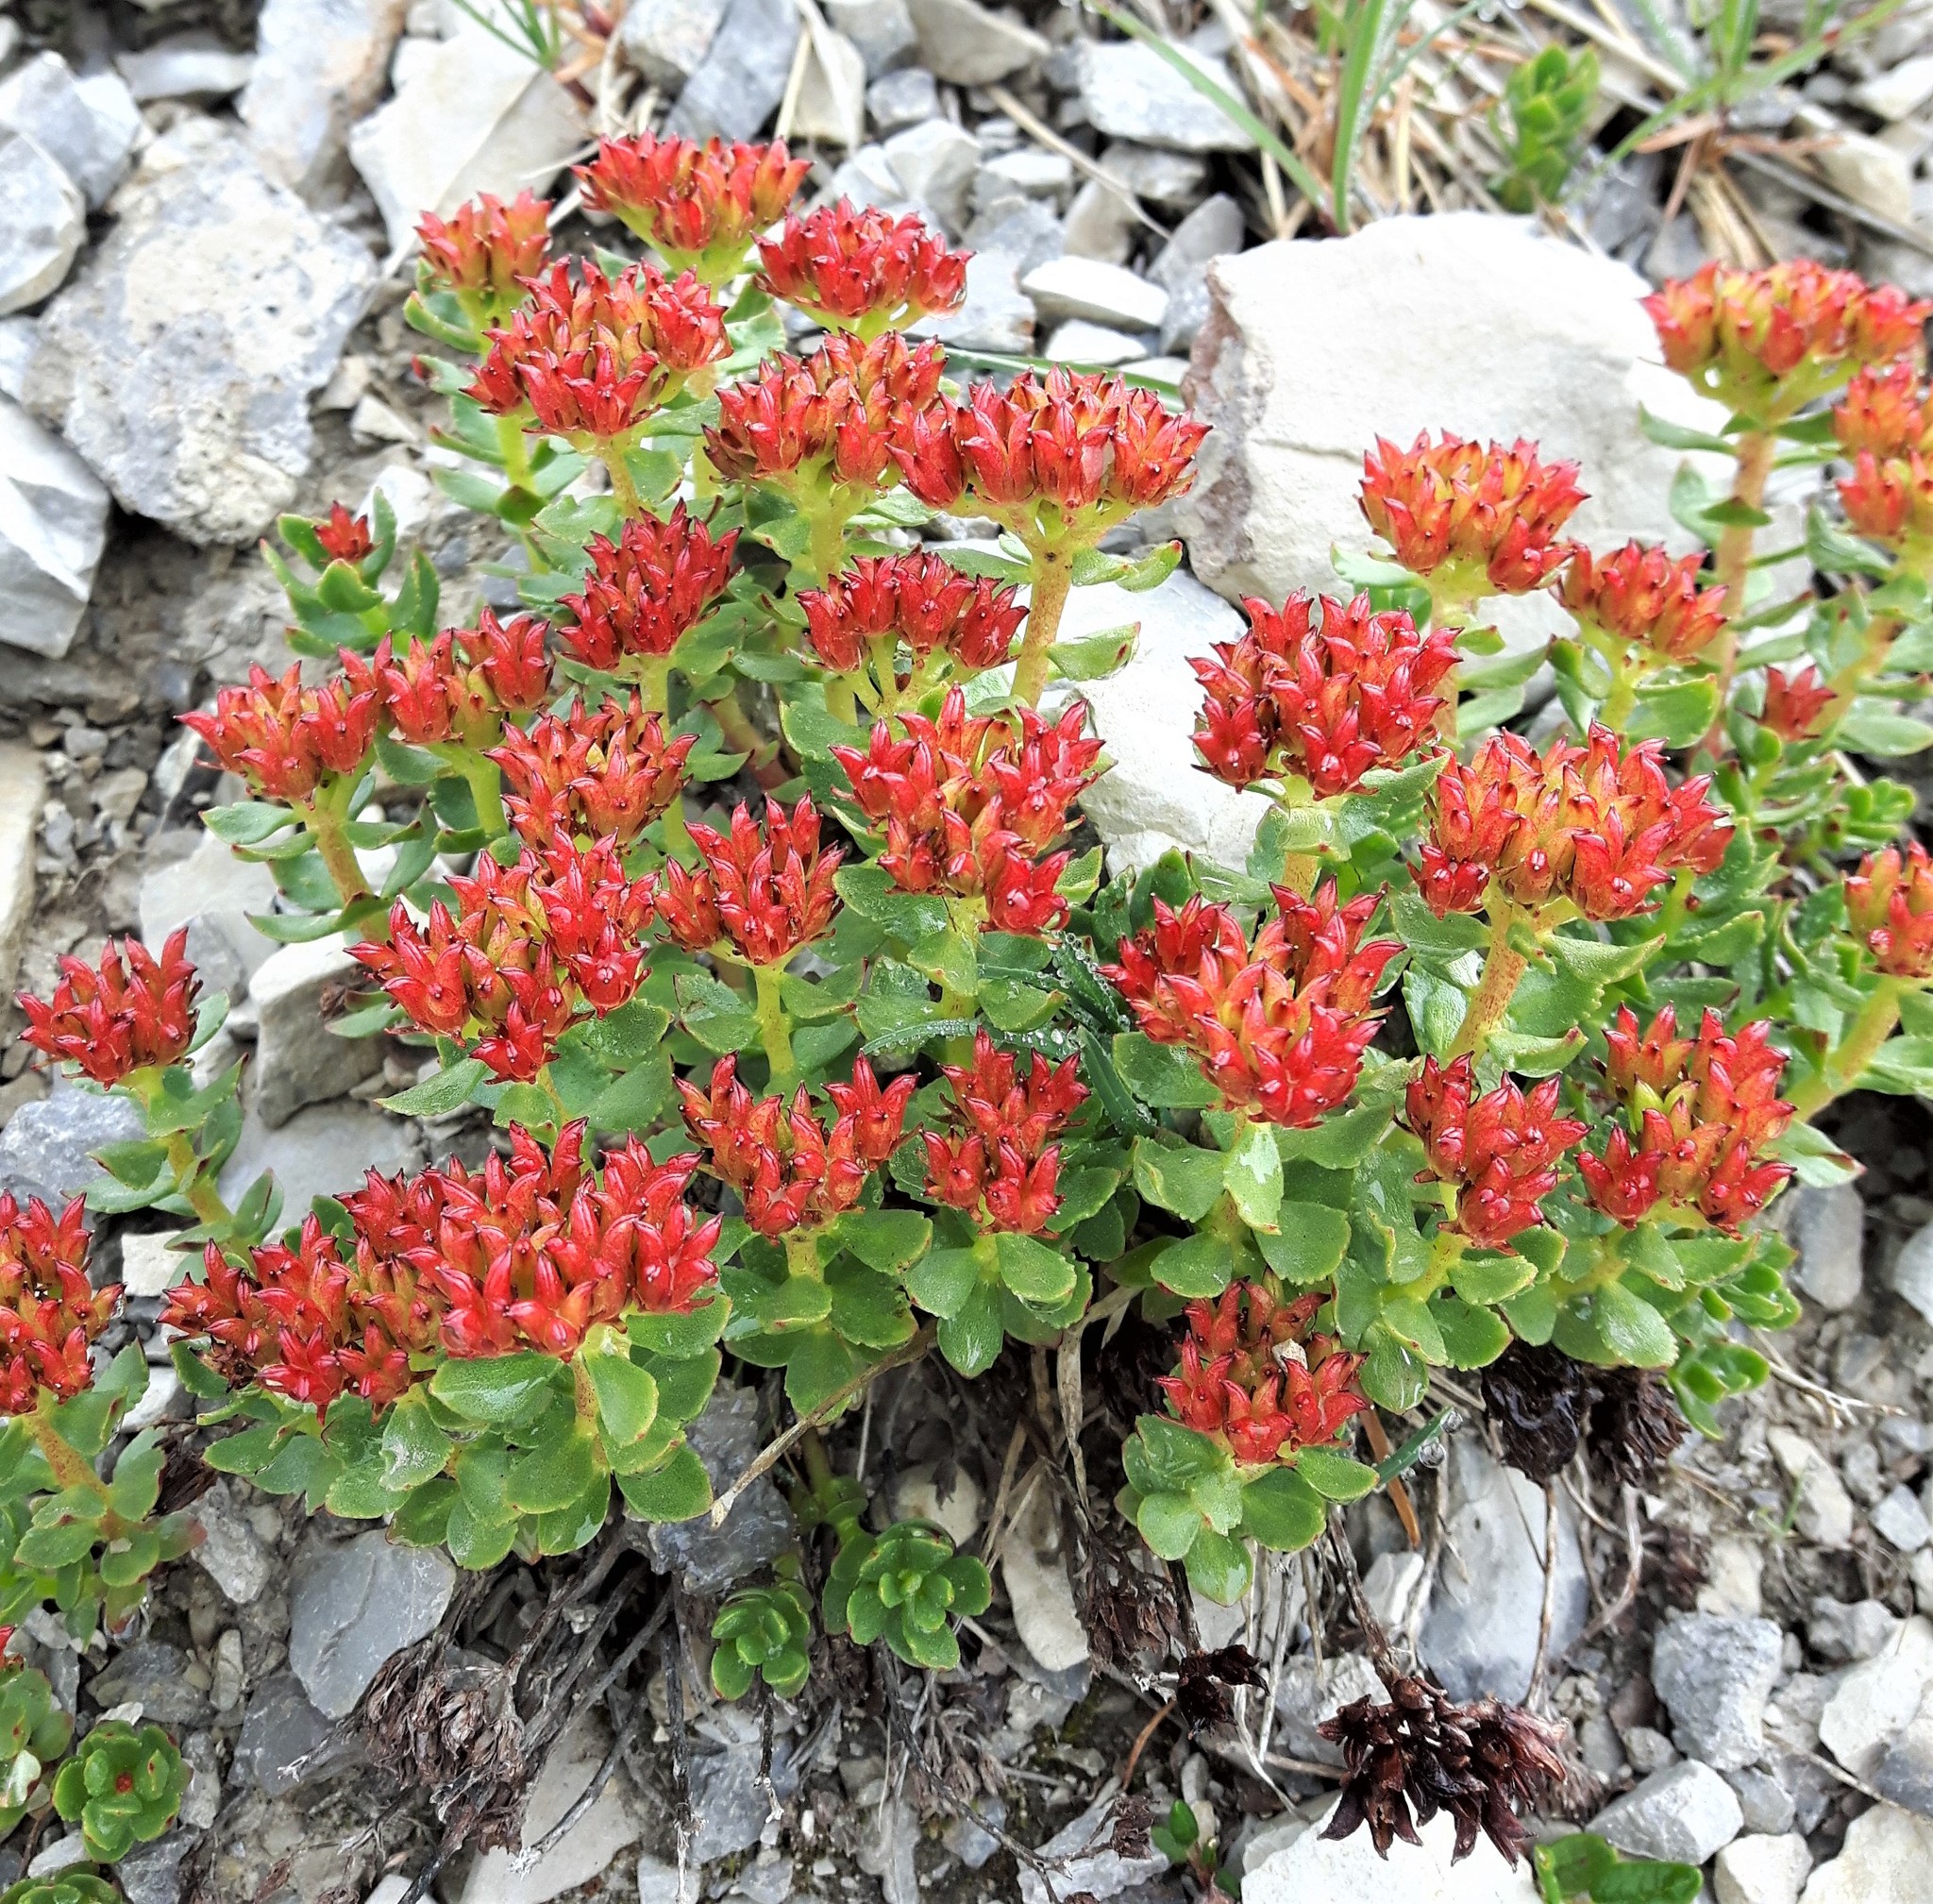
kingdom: Plantae
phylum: Tracheophyta
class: Magnoliopsida
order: Saxifragales
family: Crassulaceae
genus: Rhodiola
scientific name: Rhodiola integrifolia
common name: Western roseroot
